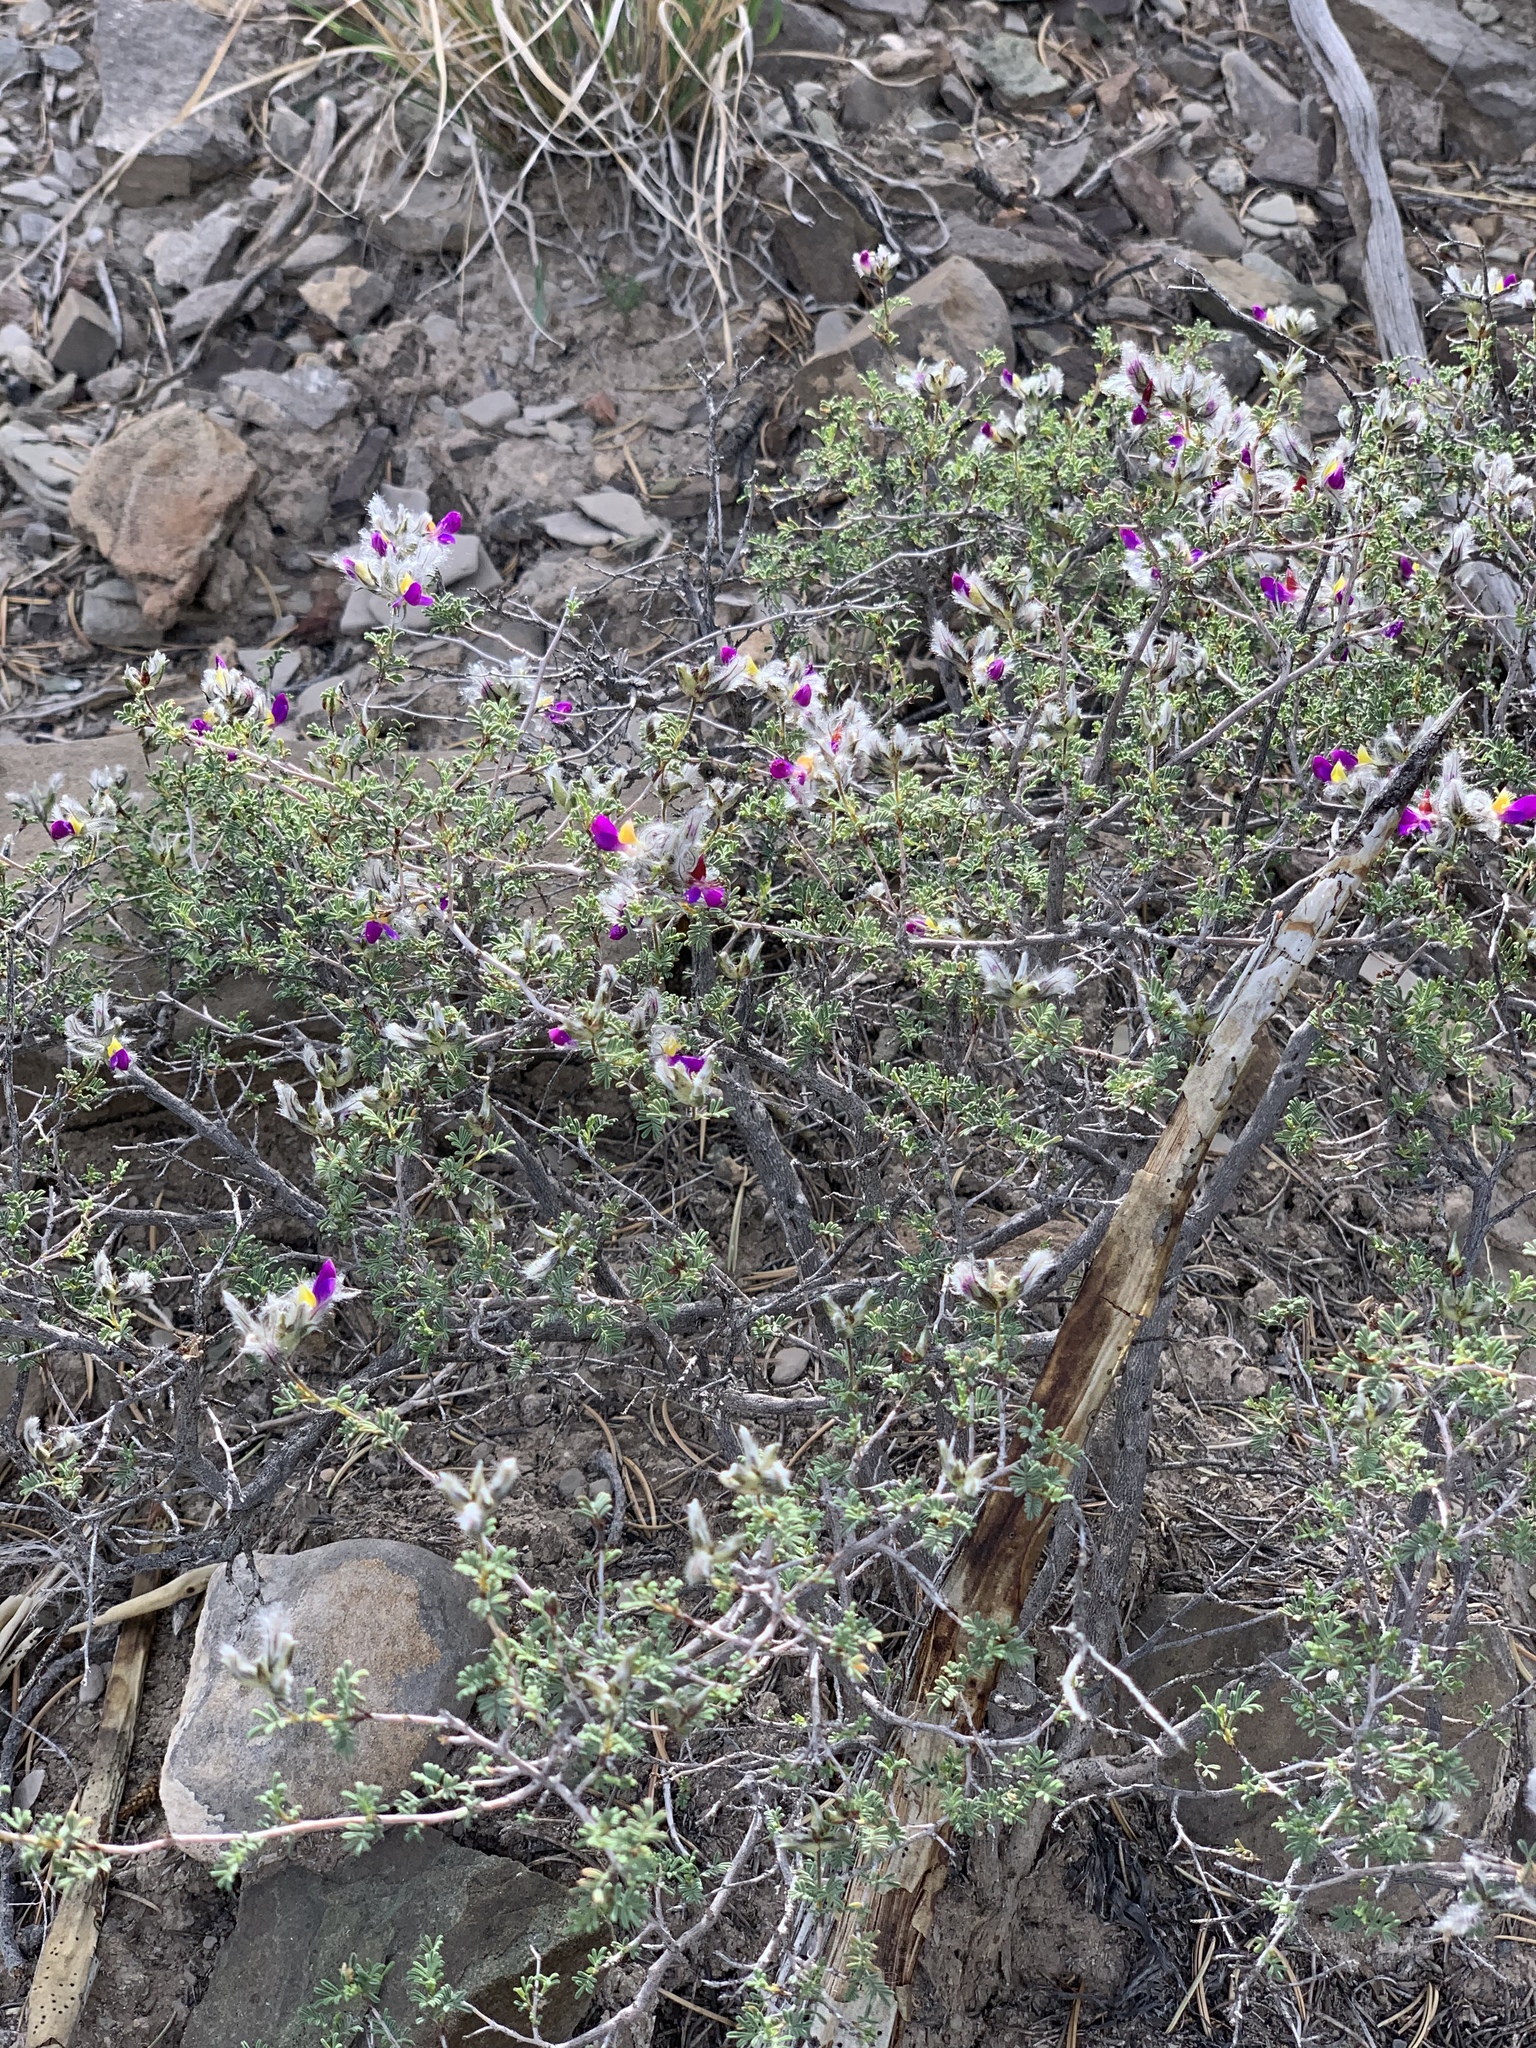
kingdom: Plantae
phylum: Tracheophyta
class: Magnoliopsida
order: Fabales
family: Fabaceae
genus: Dalea
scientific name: Dalea formosa
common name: Feather-plume dalea
